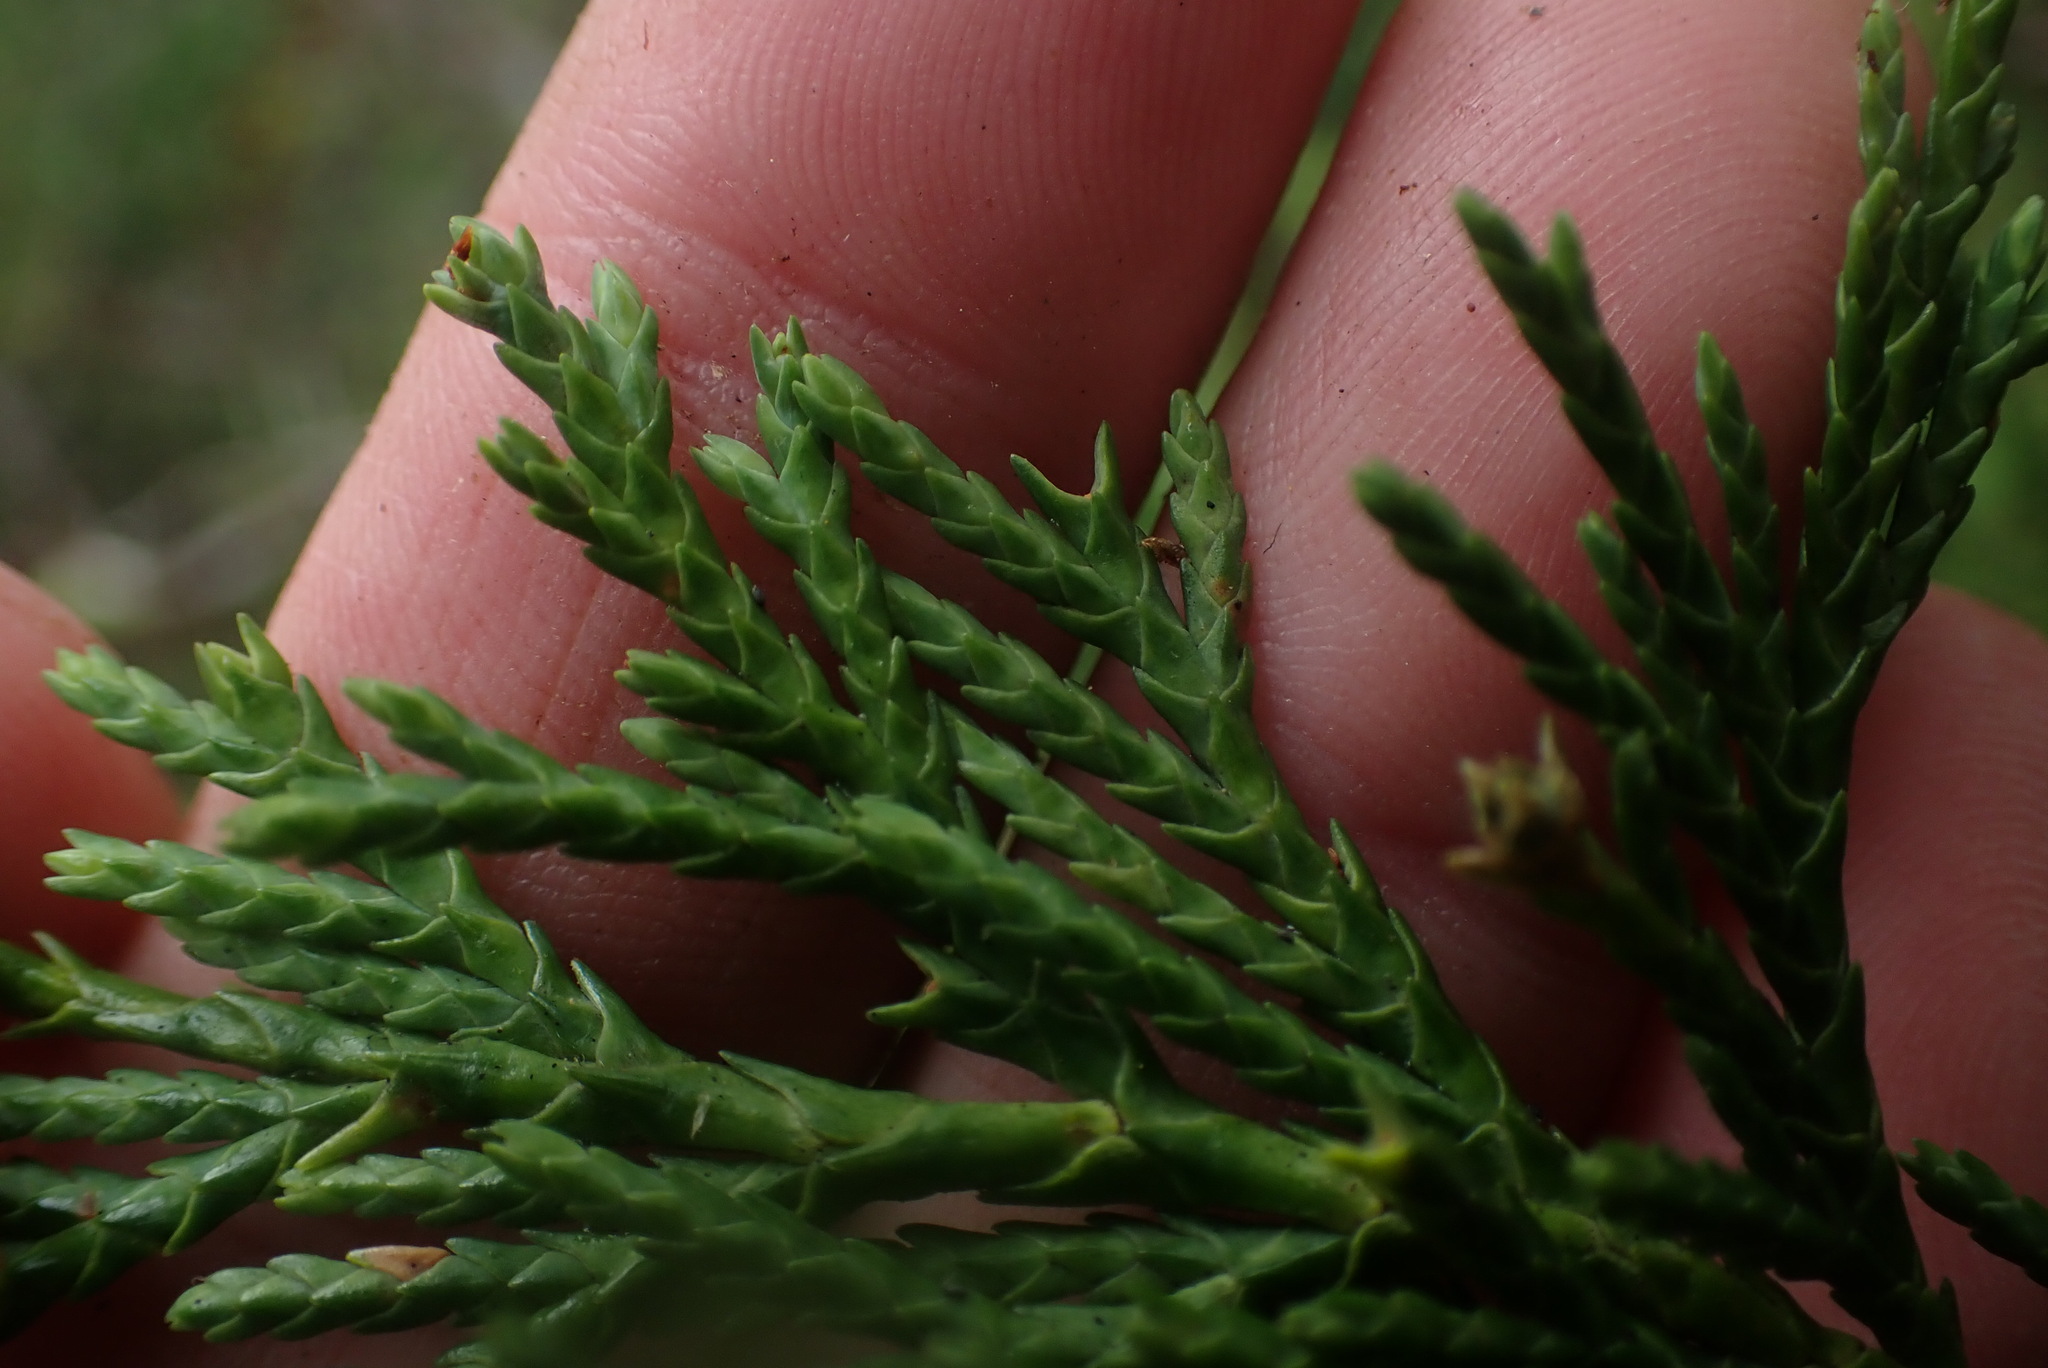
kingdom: Plantae
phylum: Tracheophyta
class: Pinopsida
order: Pinales
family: Cupressaceae
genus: Xanthocyparis
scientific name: Xanthocyparis nootkatensis
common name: Nootka cypress
